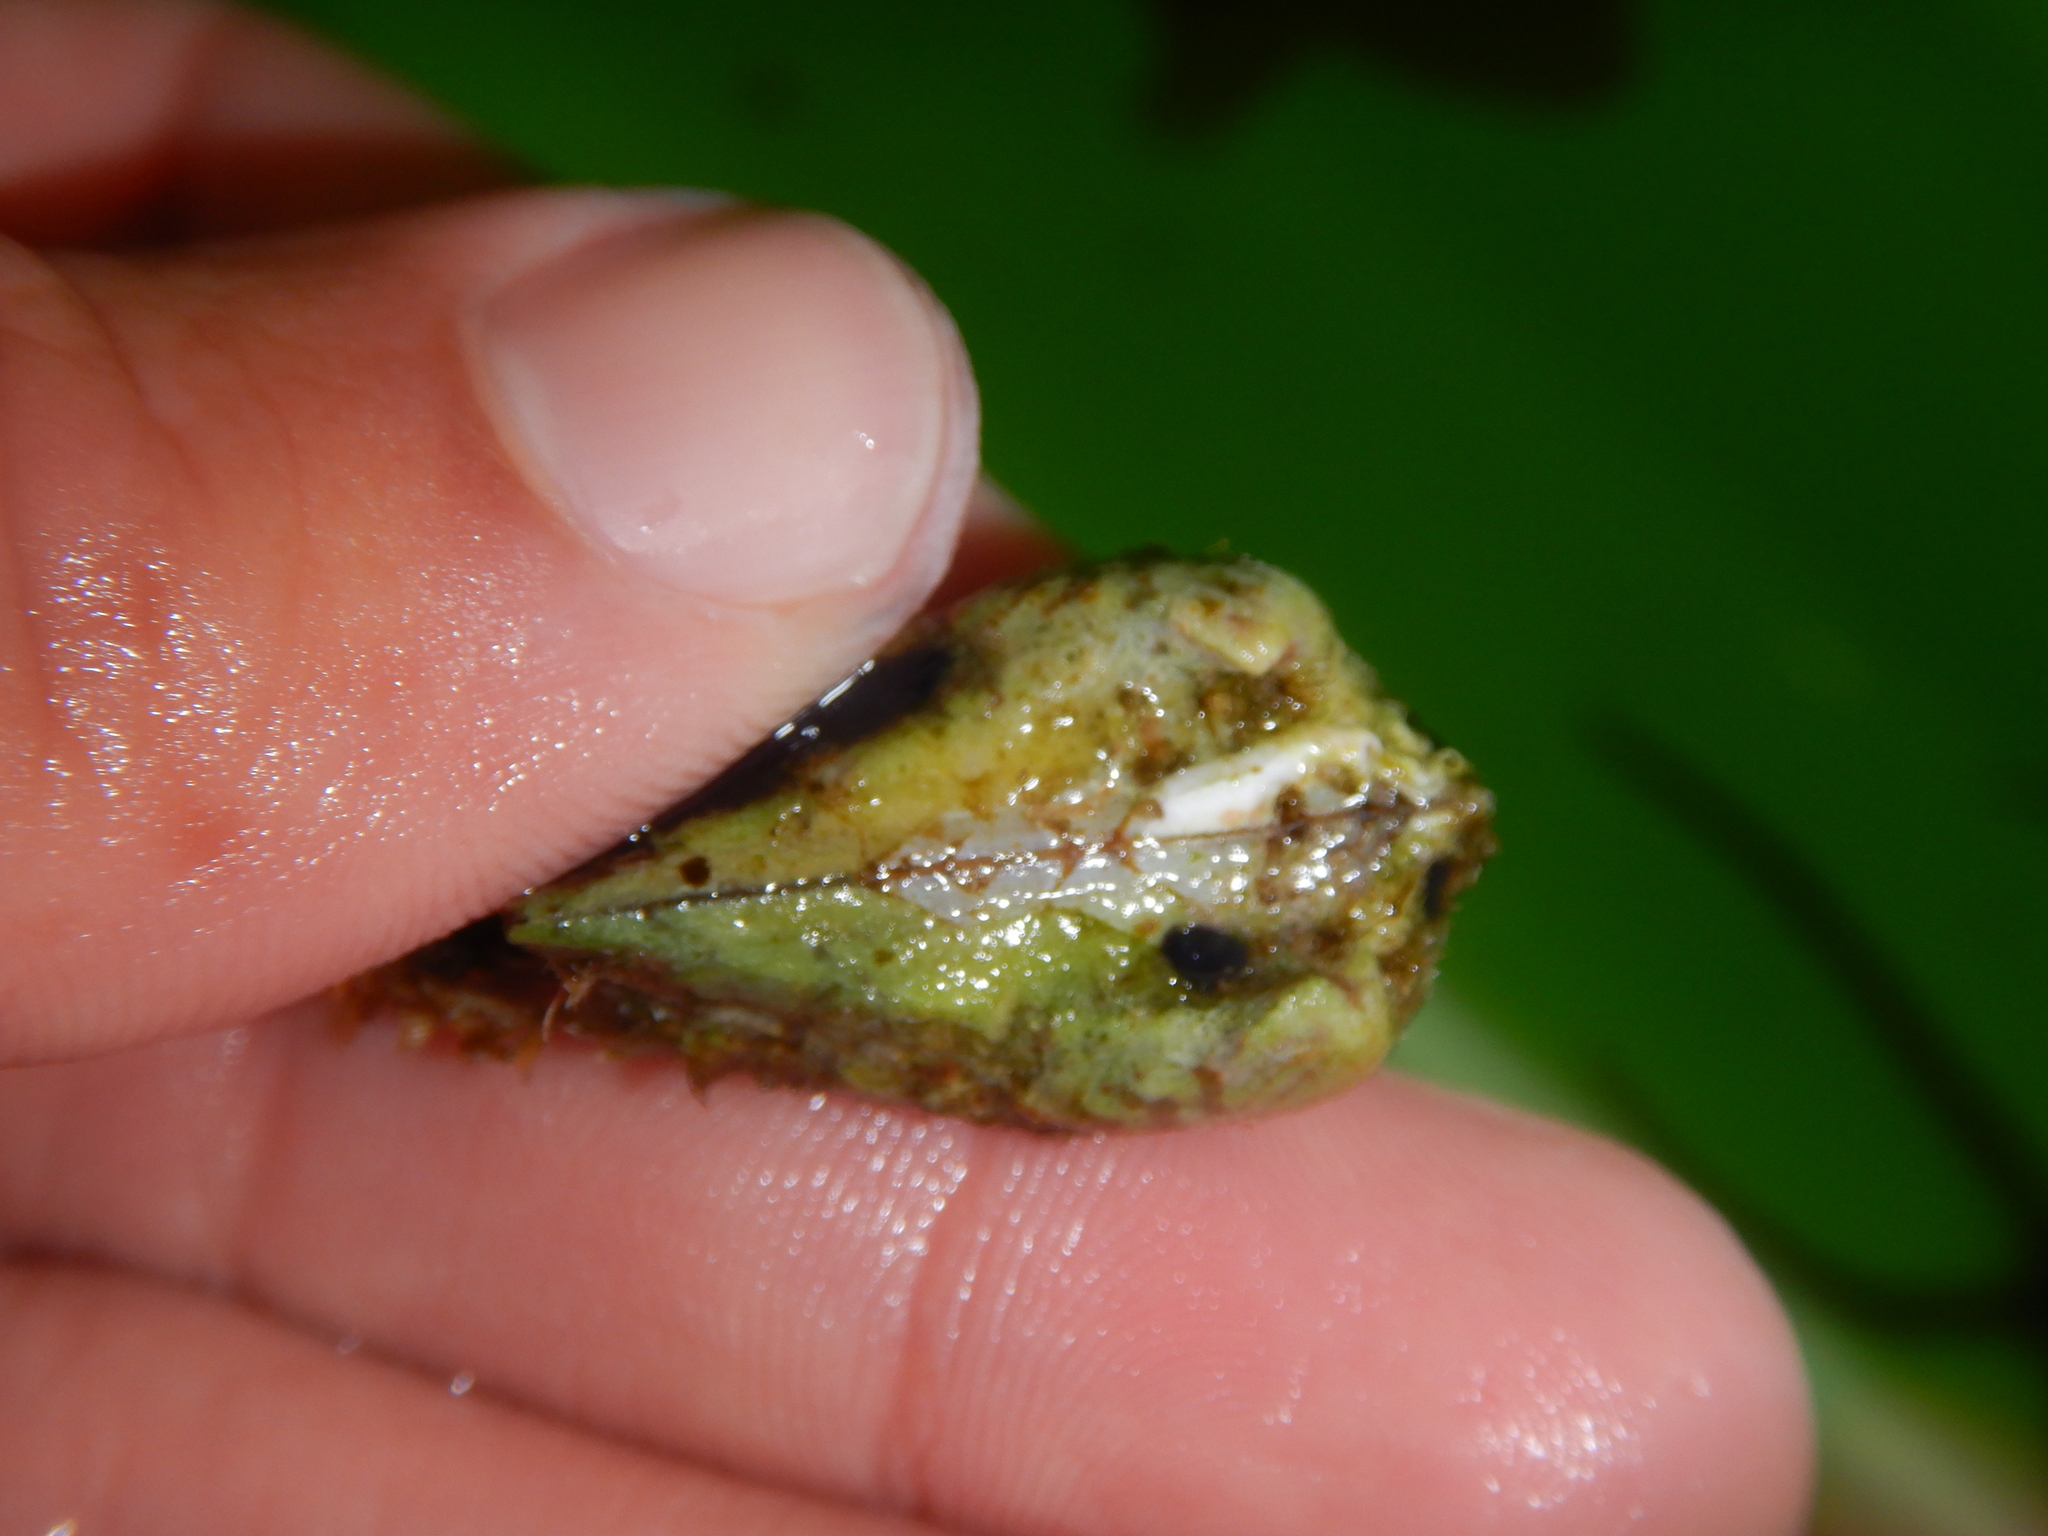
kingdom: Animalia
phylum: Mollusca
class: Bivalvia
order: Arcida
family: Arcidae
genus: Arca
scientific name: Arca noae
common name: Noah's arch
